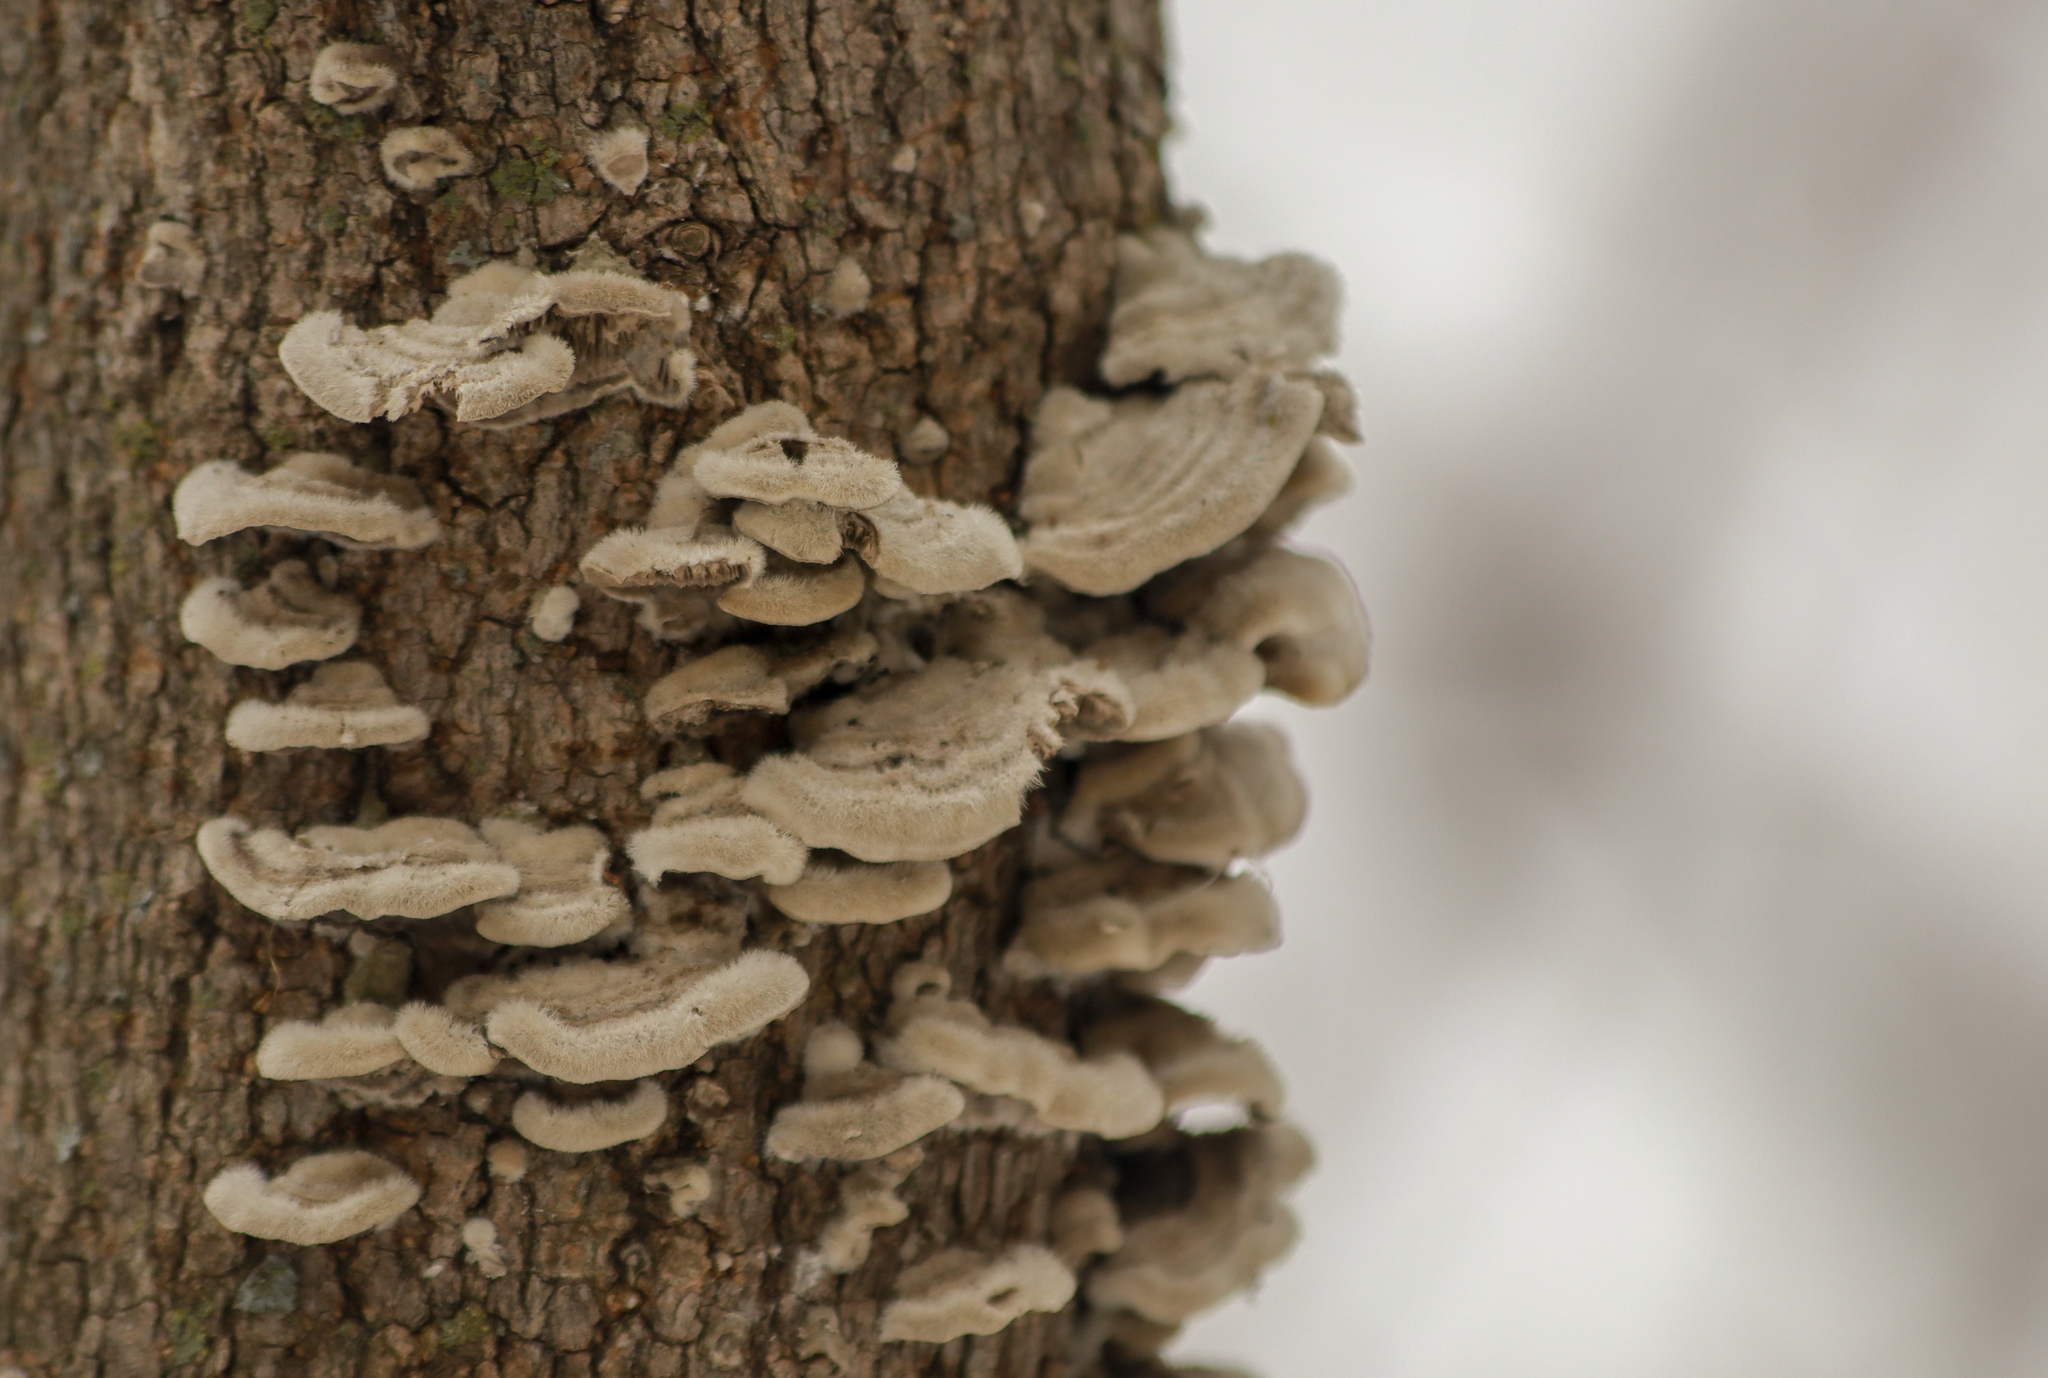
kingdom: Fungi
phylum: Basidiomycota
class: Agaricomycetes
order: Polyporales
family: Cerrenaceae
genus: Cerrena
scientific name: Cerrena unicolor
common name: Mossy maze polypore
